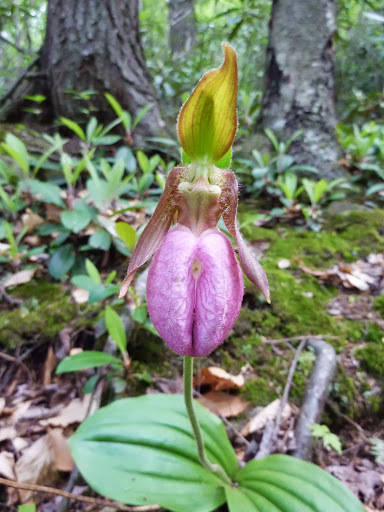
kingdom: Plantae
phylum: Tracheophyta
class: Liliopsida
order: Asparagales
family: Orchidaceae
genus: Cypripedium
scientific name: Cypripedium acaule
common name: Pink lady's-slipper
